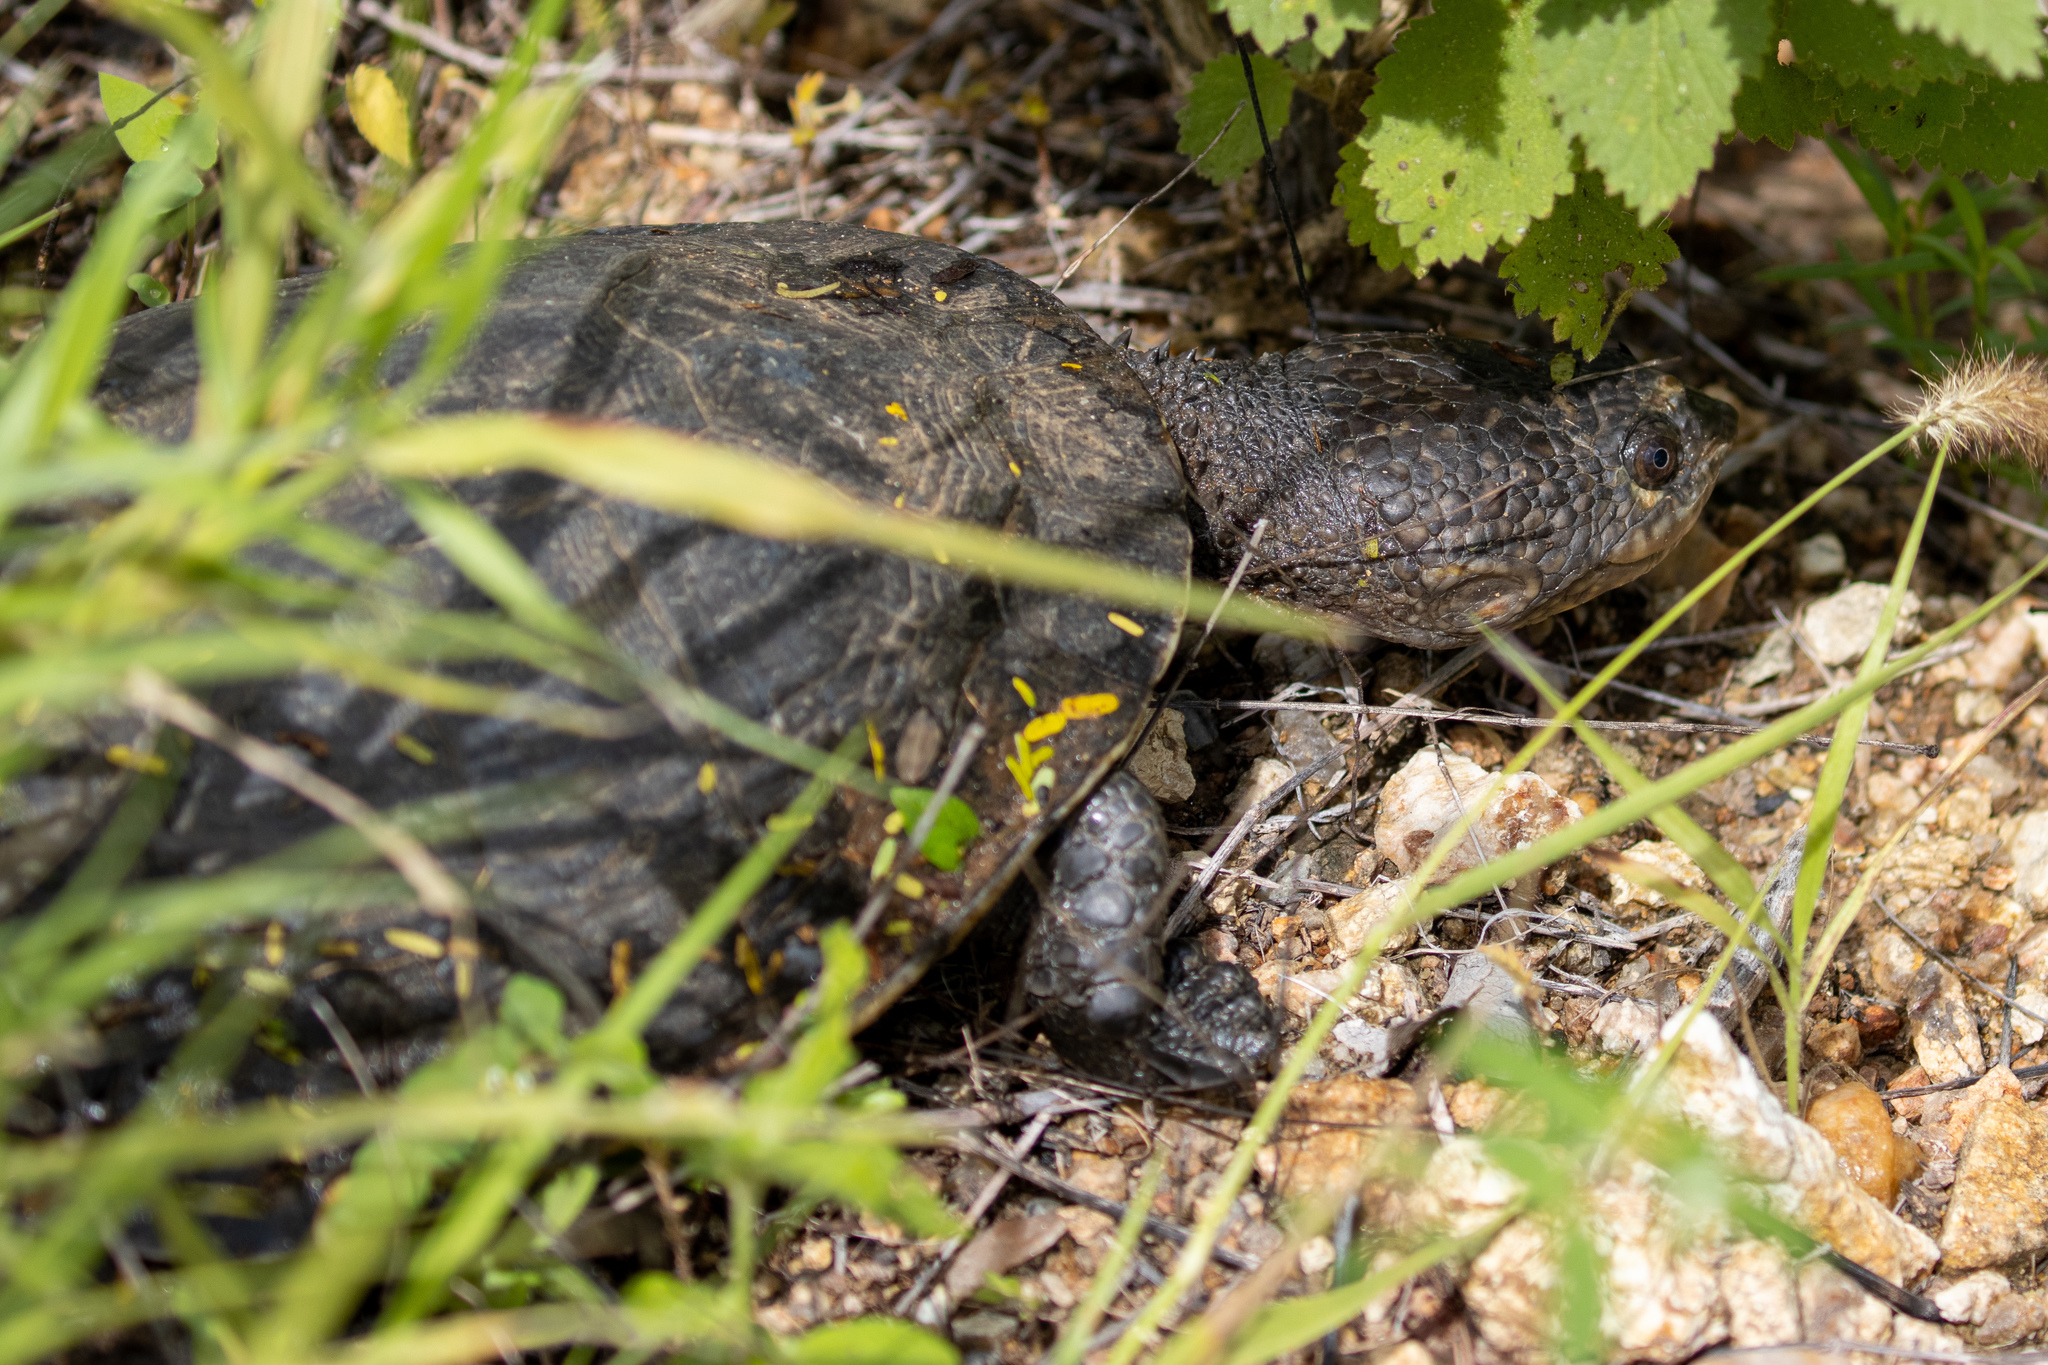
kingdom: Animalia
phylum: Chordata
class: Testudines
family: Chelidae
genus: Mesoclemmys
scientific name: Mesoclemmys tuberculata
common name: Tuberculate toad-headed turtle
